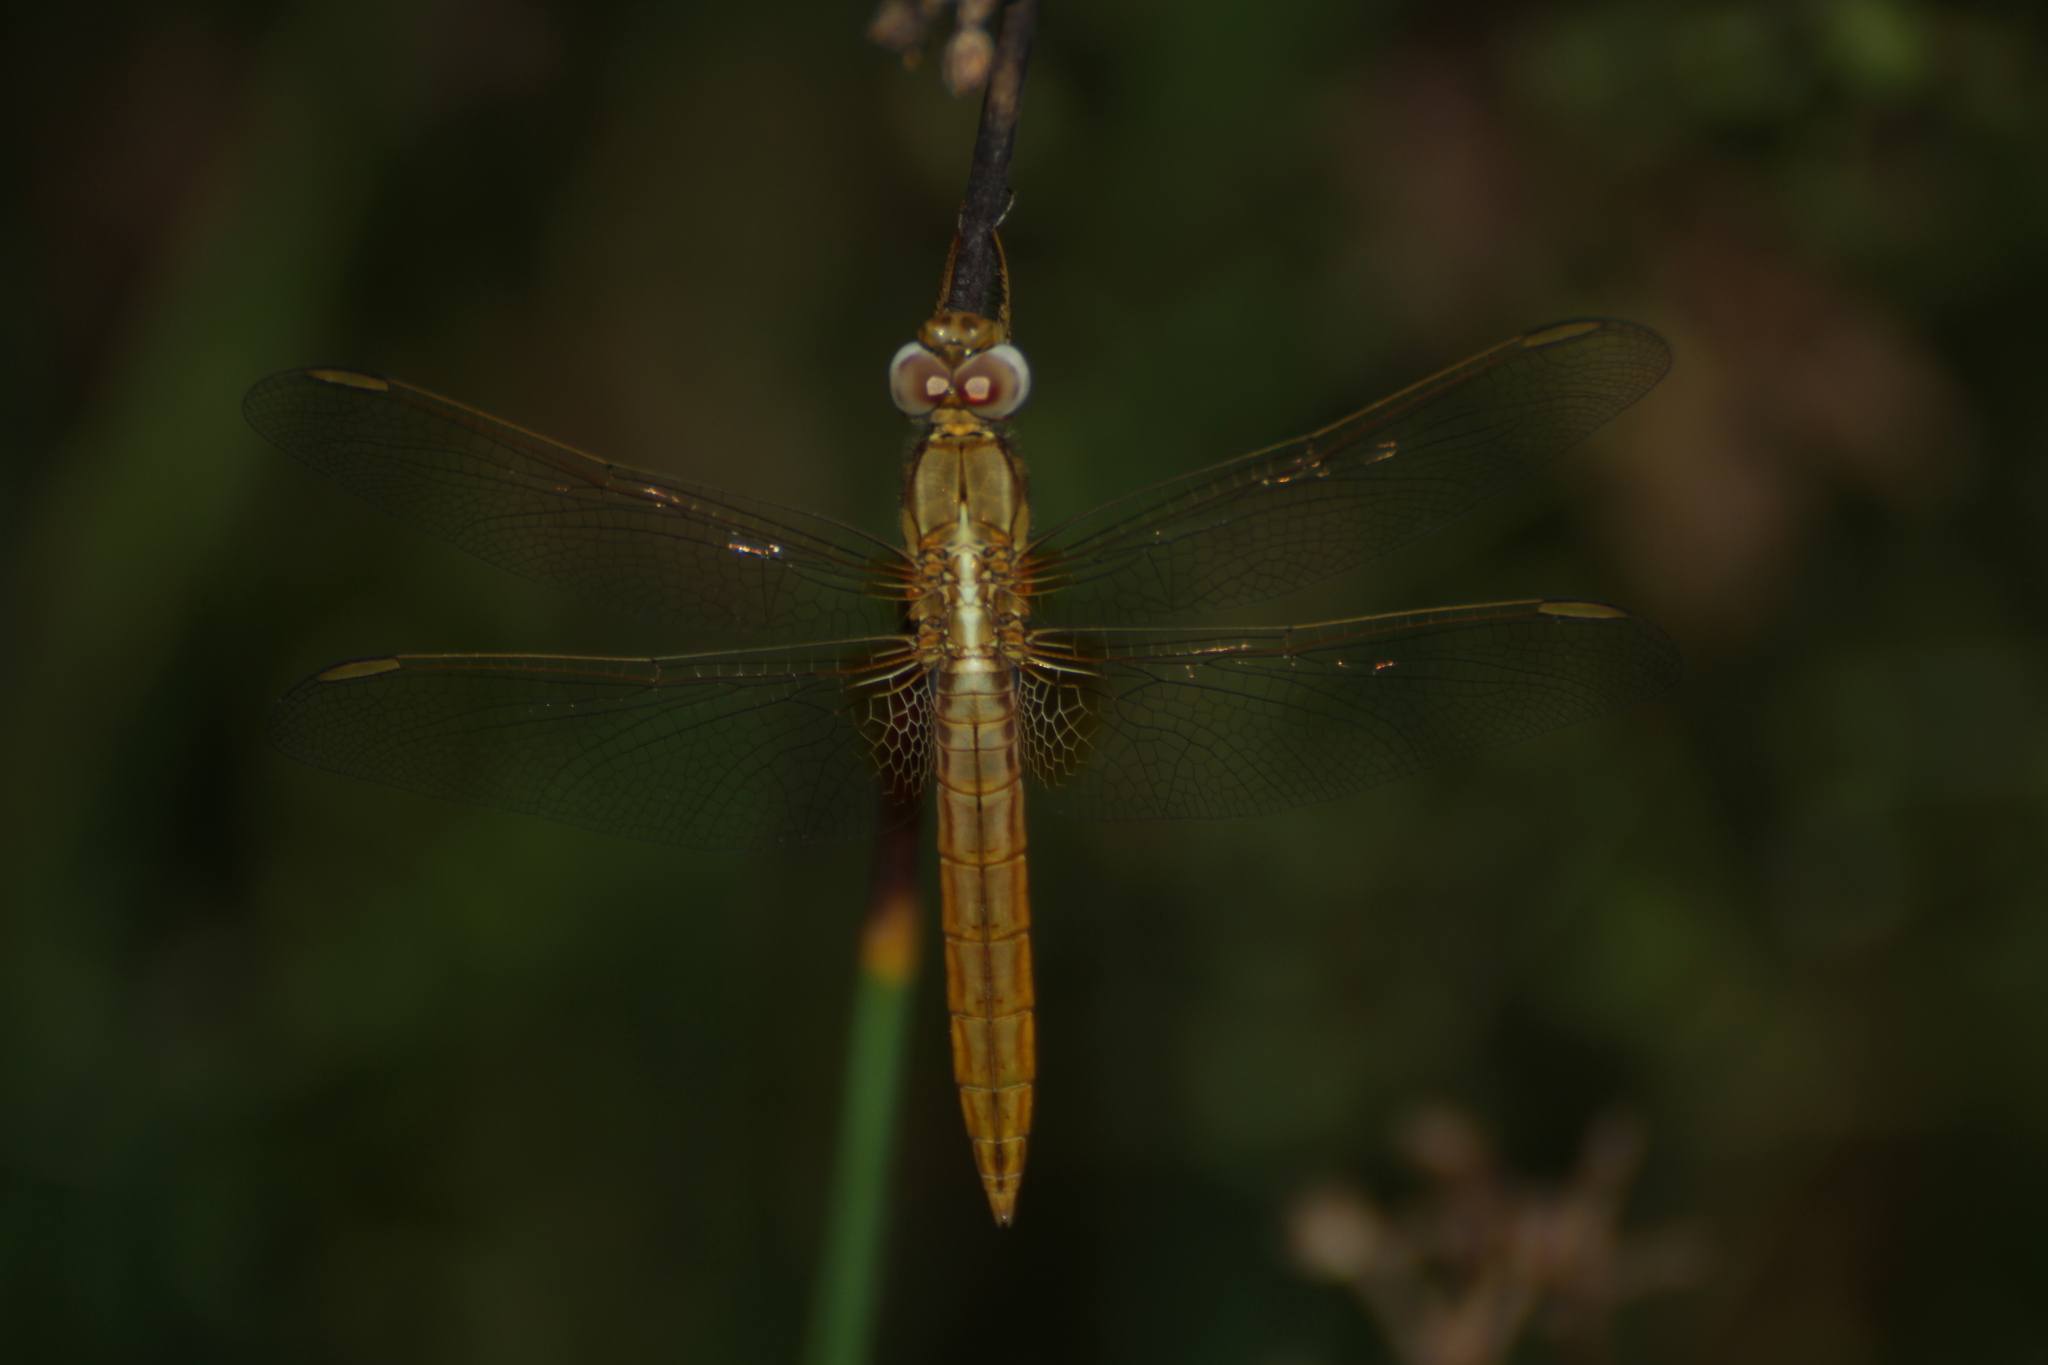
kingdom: Animalia
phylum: Arthropoda
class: Insecta
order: Odonata
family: Libellulidae
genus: Crocothemis
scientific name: Crocothemis erythraea
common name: Scarlet dragonfly
